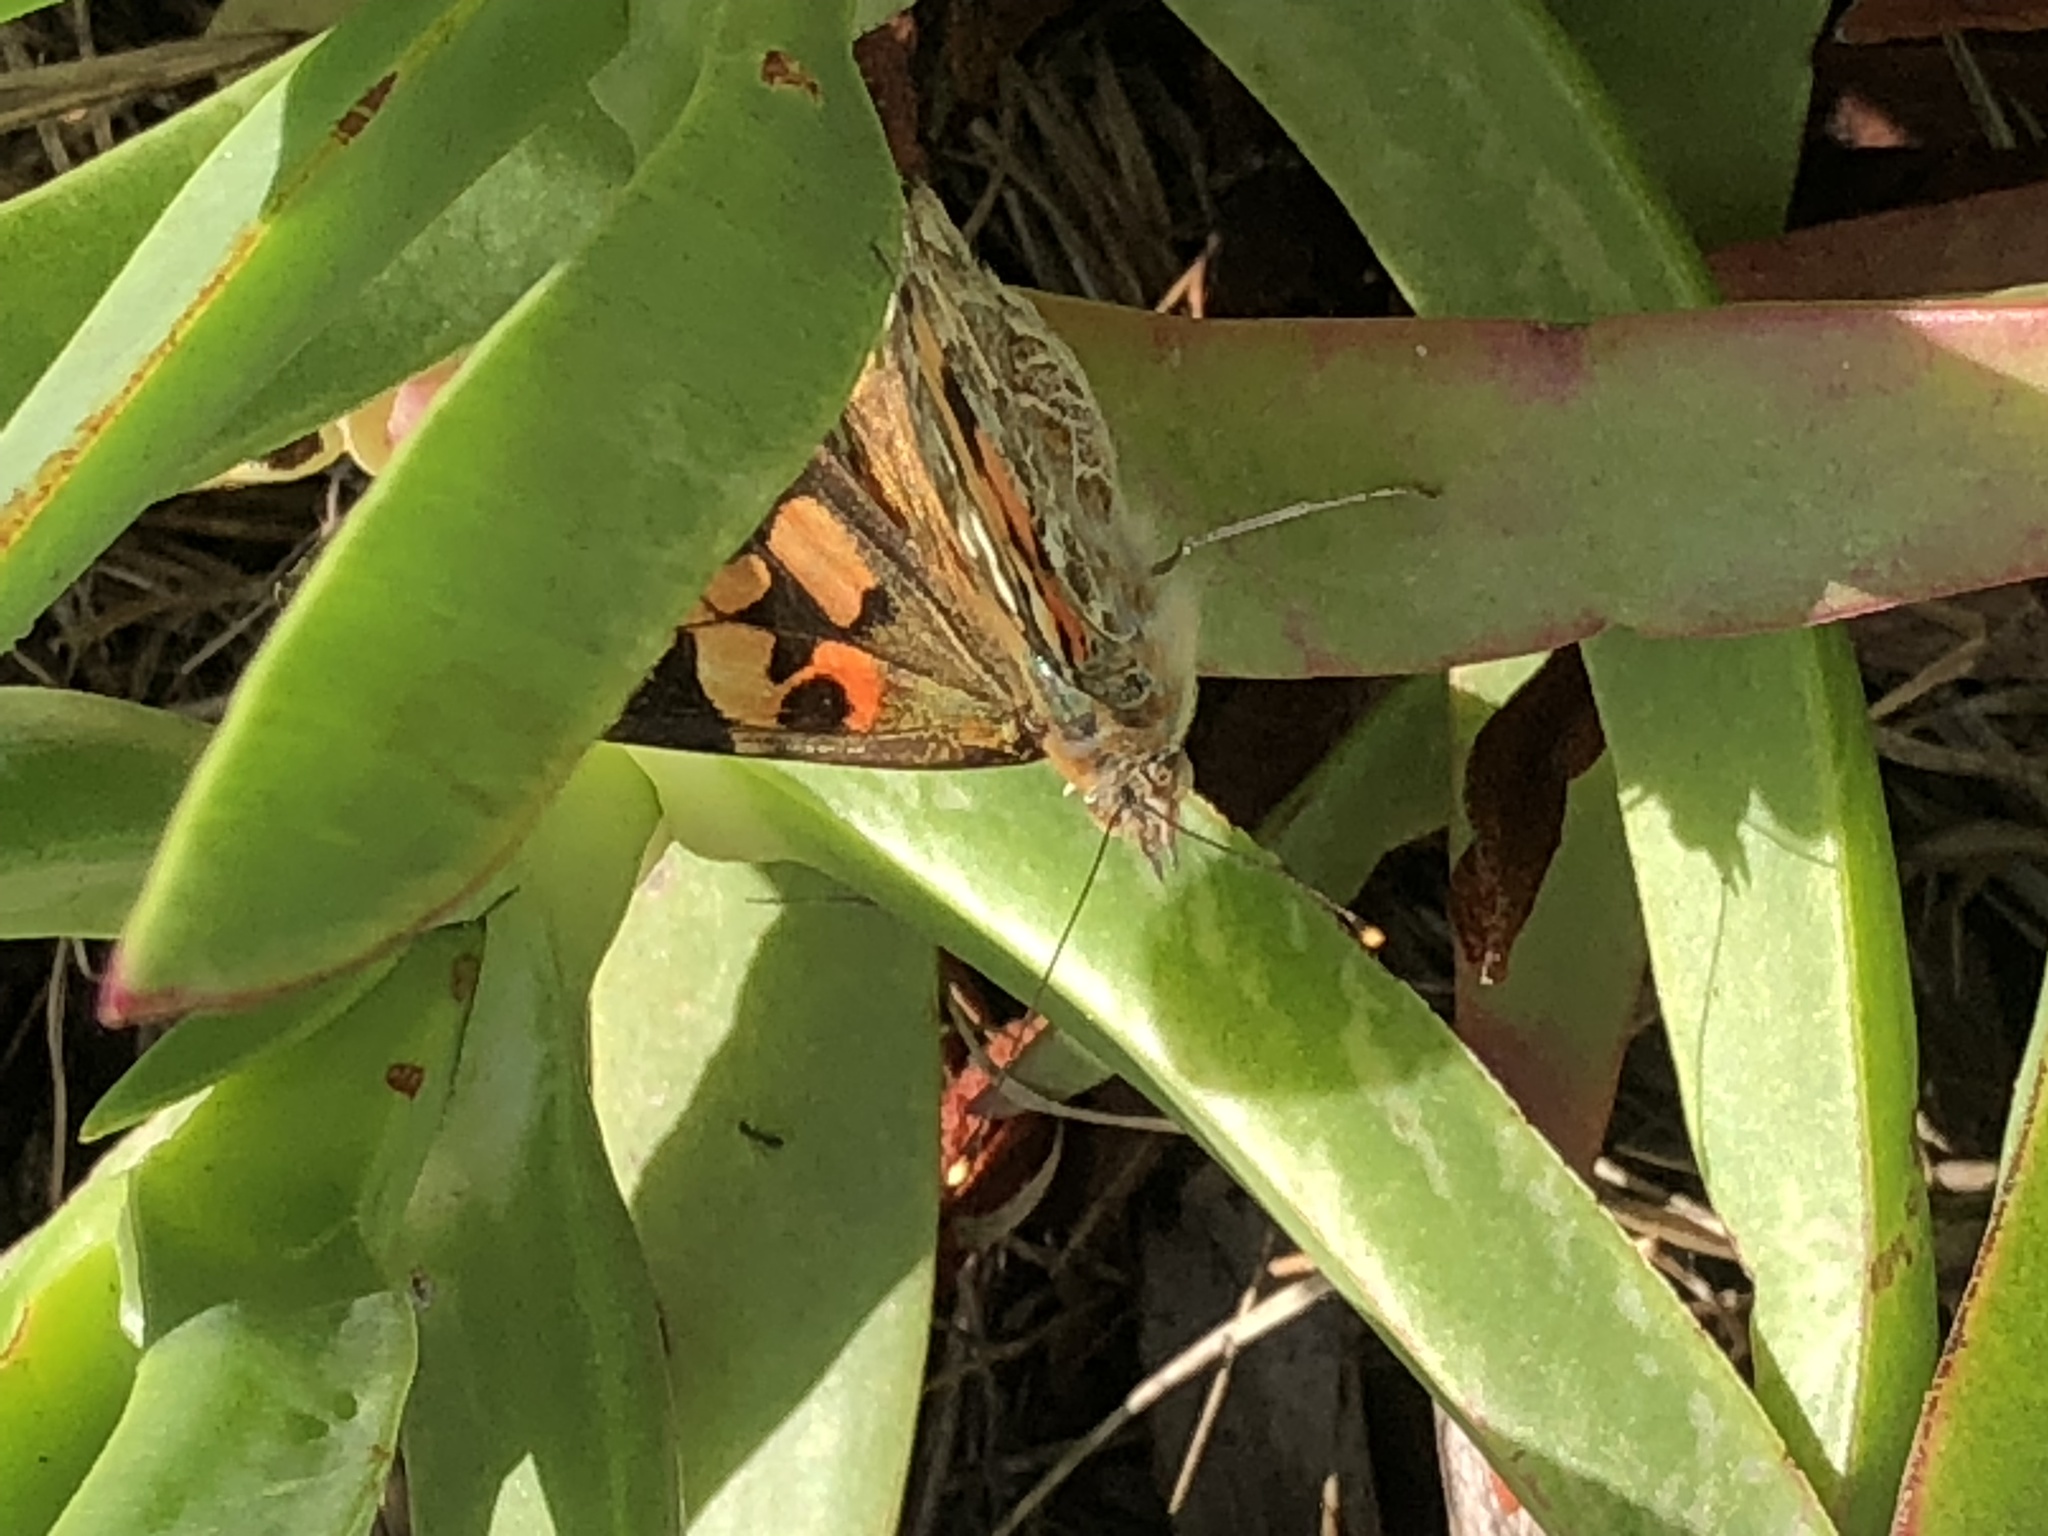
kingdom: Animalia
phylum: Arthropoda
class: Insecta
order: Lepidoptera
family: Nymphalidae
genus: Vanessa
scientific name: Vanessa cardui
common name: Painted lady
